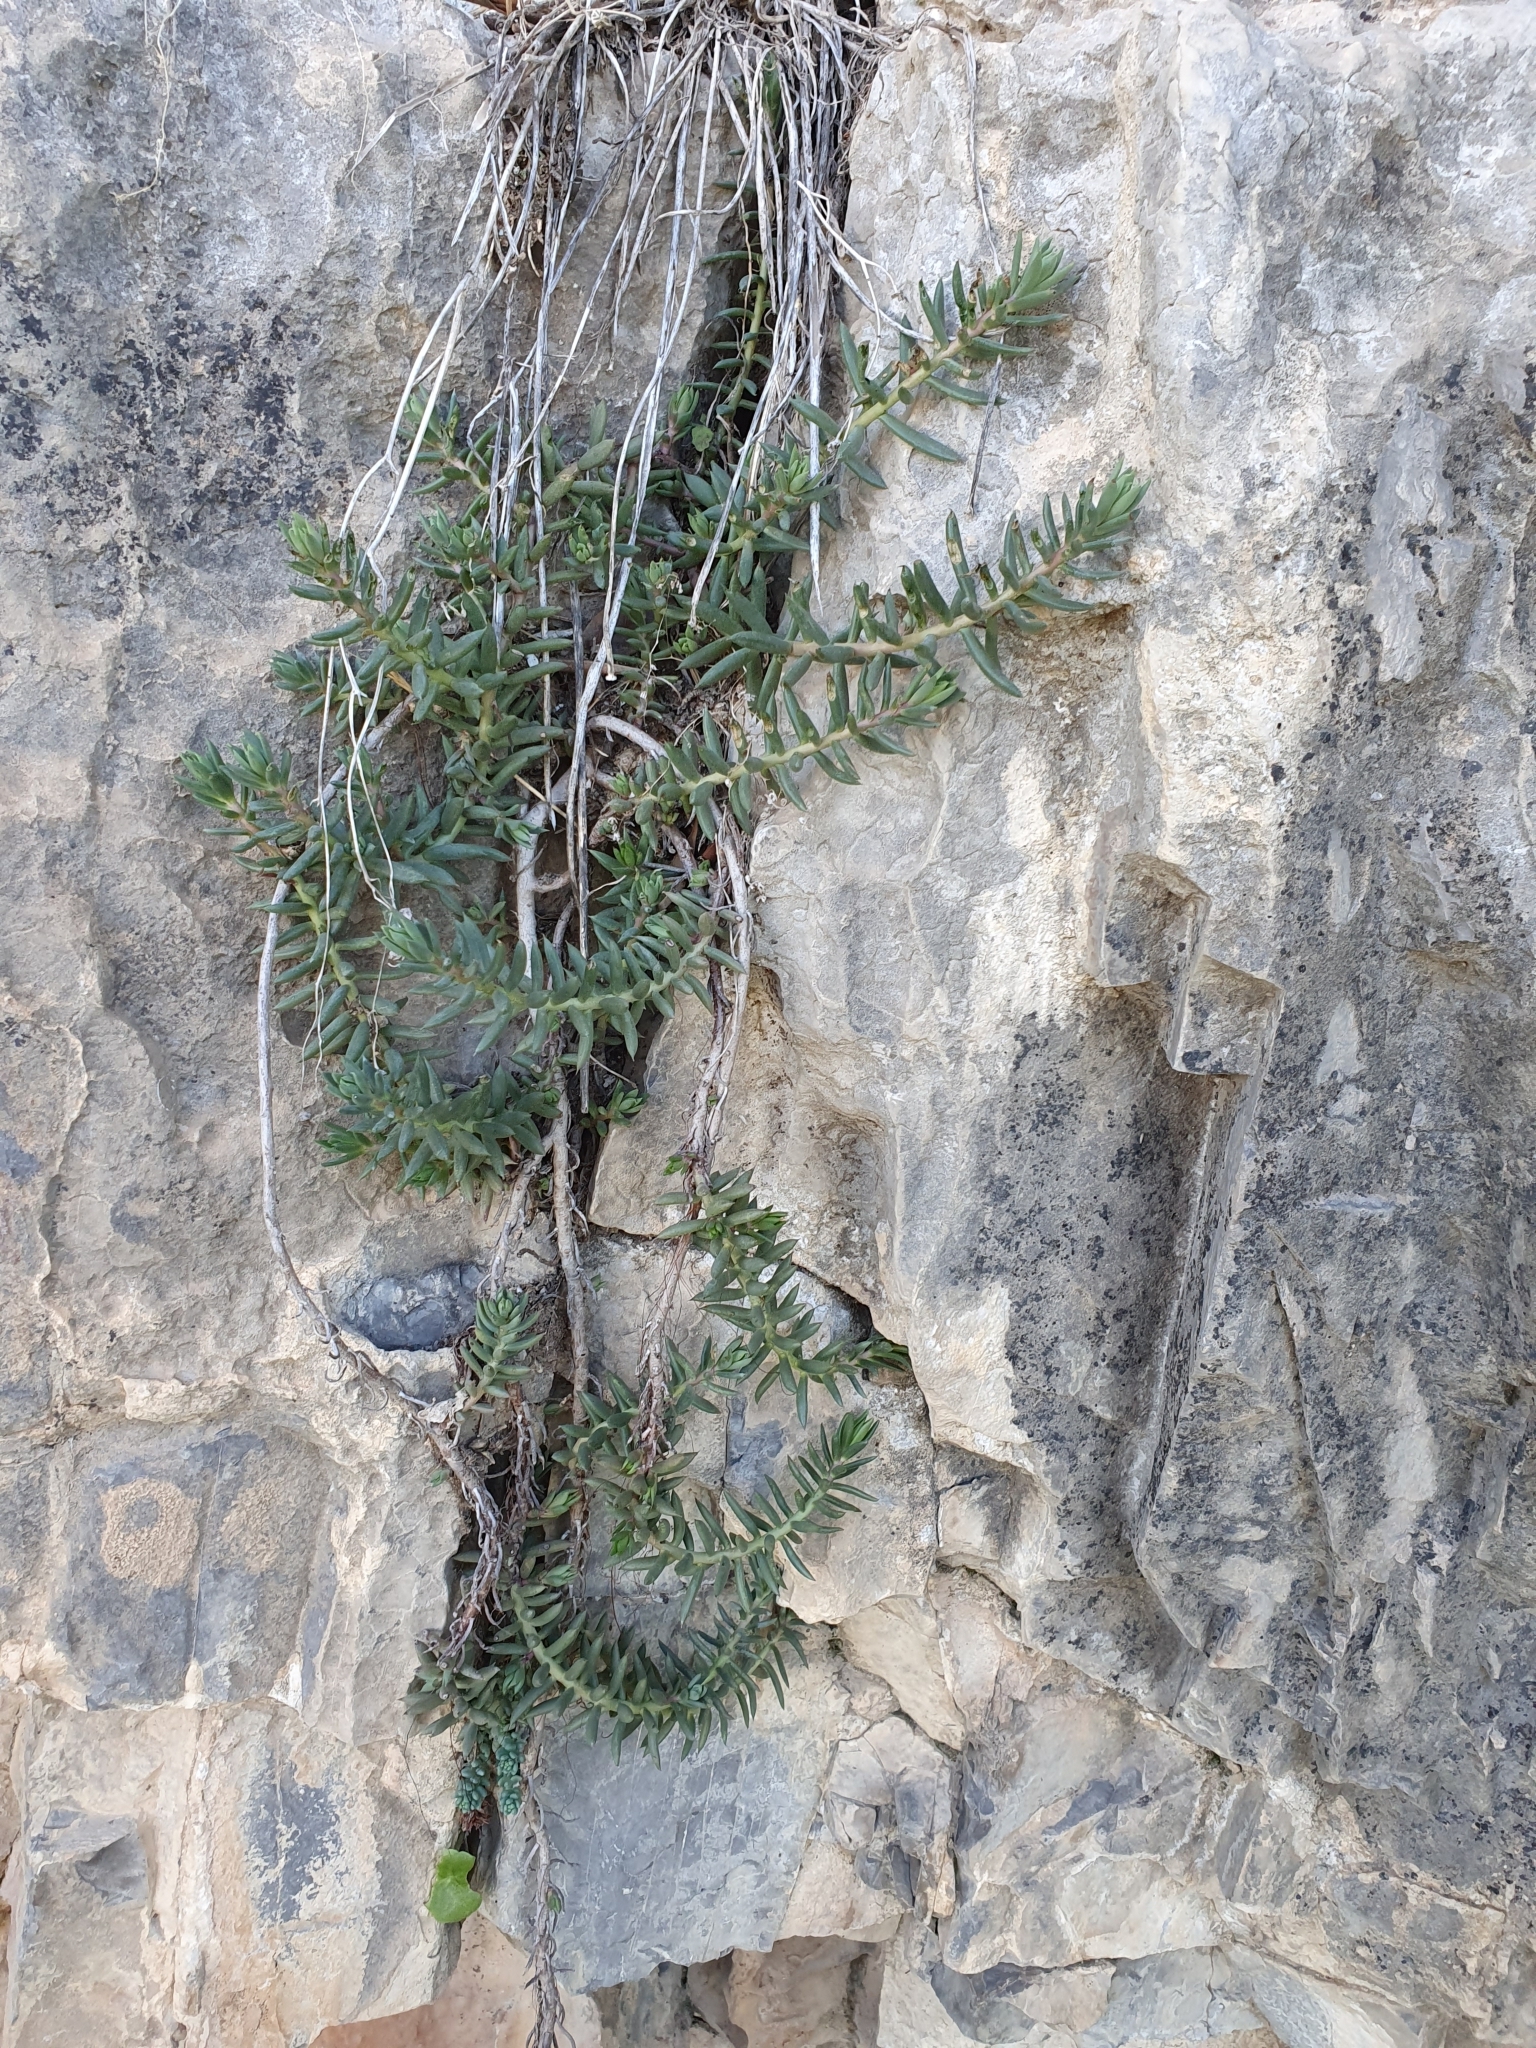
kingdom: Plantae
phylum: Tracheophyta
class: Magnoliopsida
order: Saxifragales
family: Crassulaceae
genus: Petrosedum
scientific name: Petrosedum sediforme
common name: Pale stonecrop
